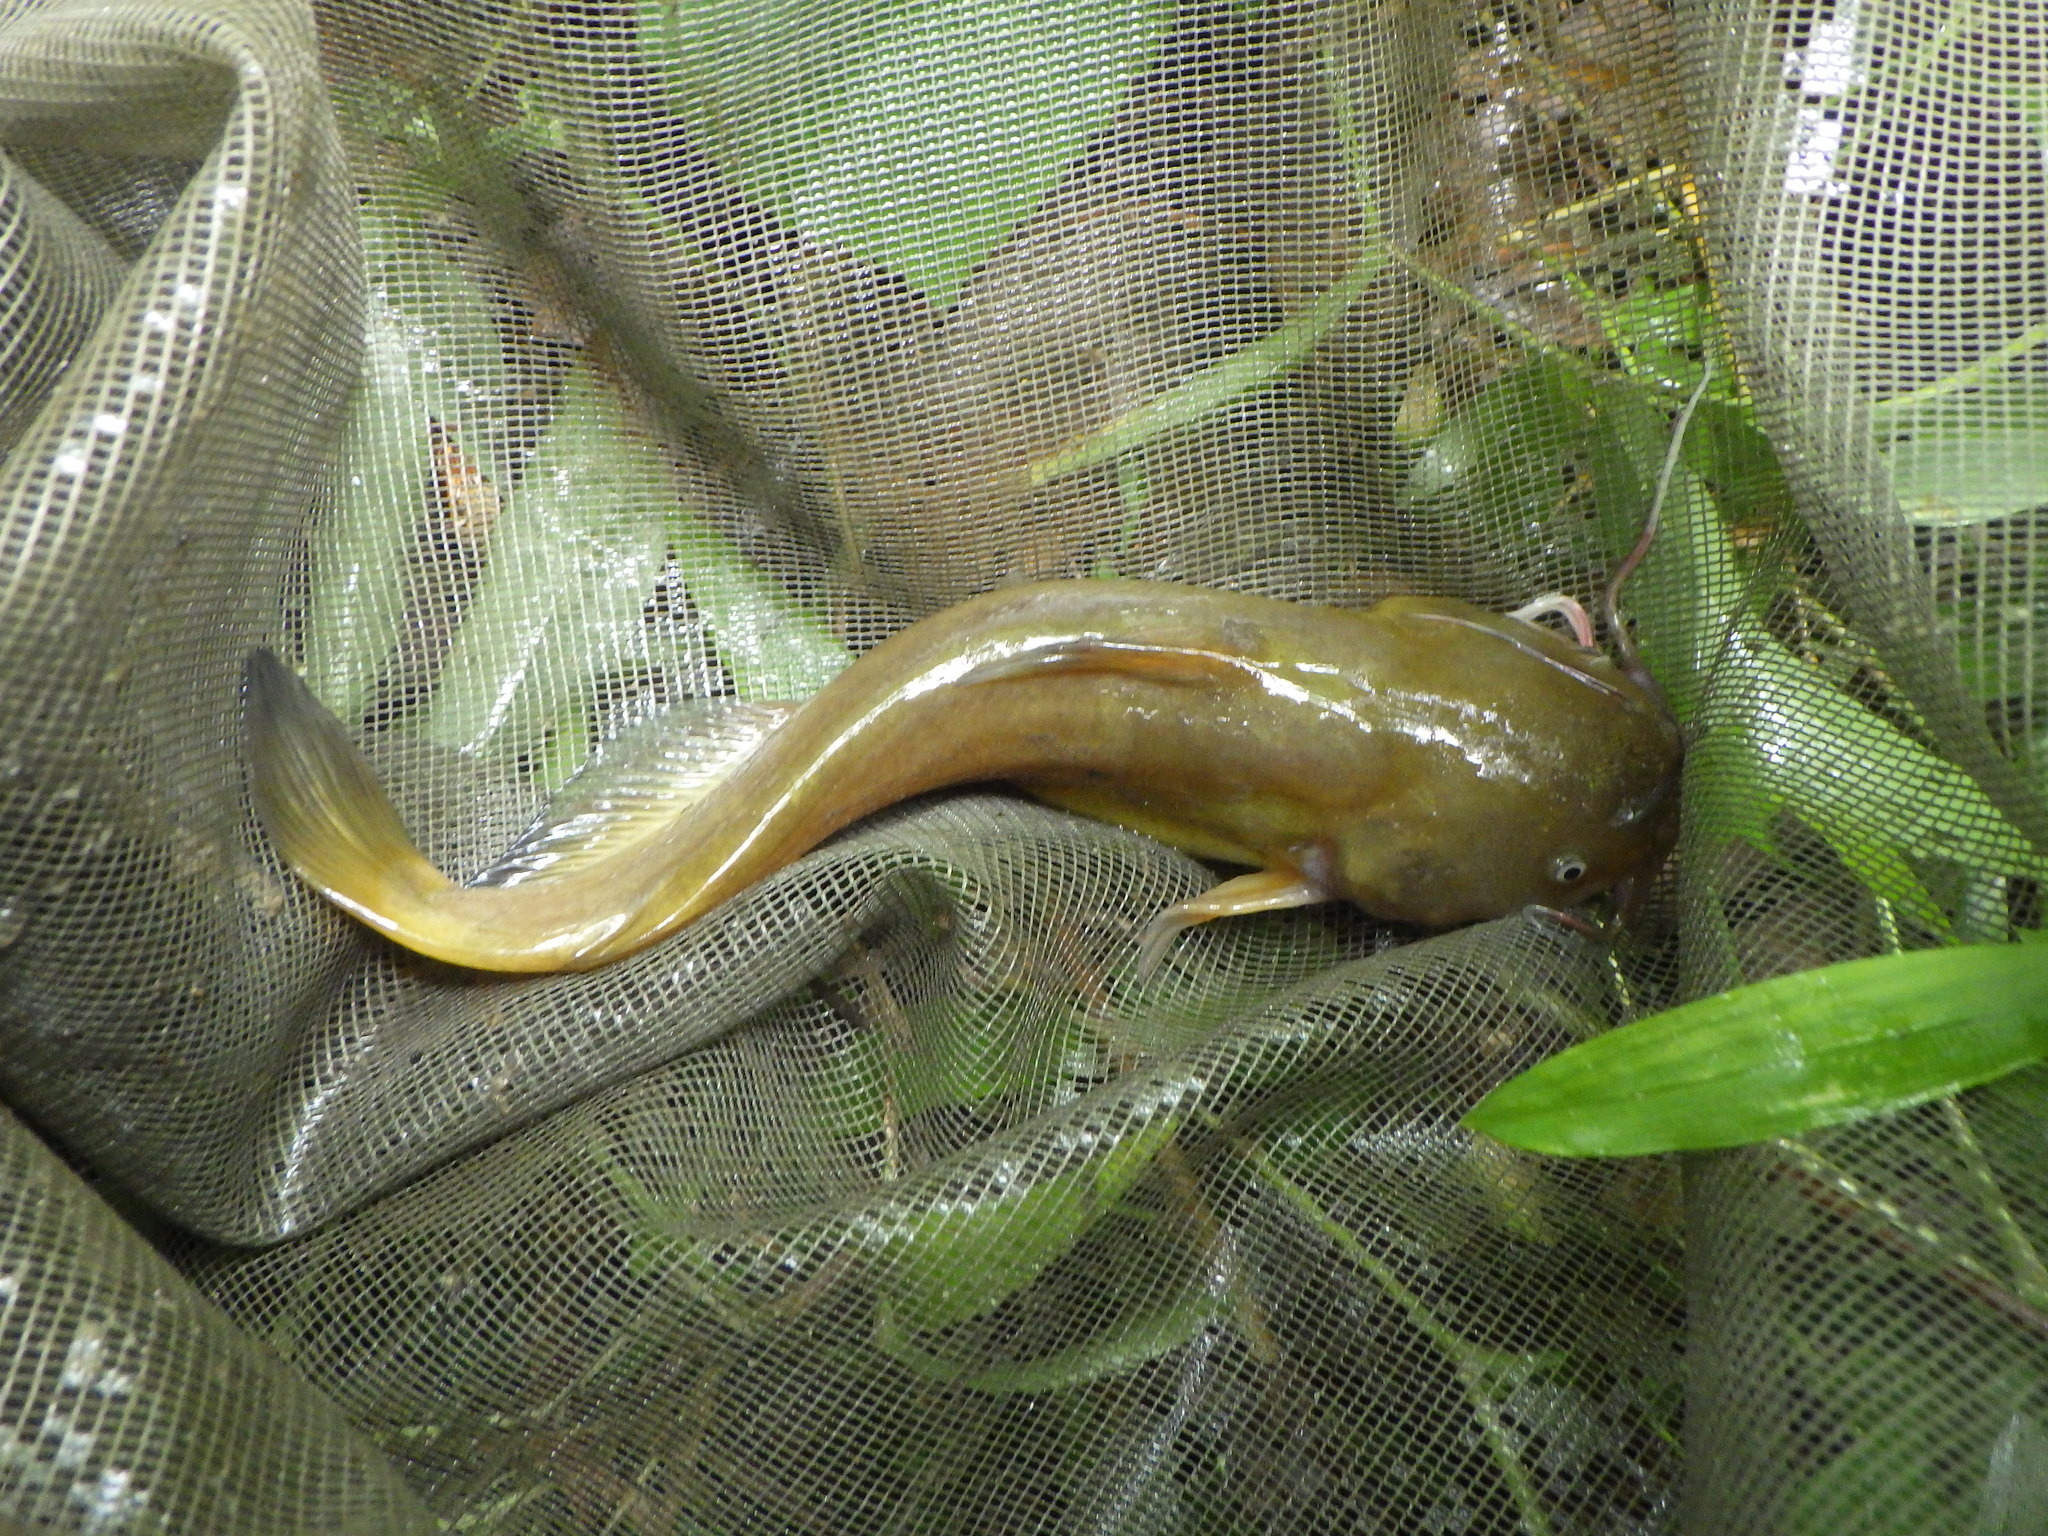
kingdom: Animalia
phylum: Chordata
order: Siluriformes
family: Ictaluridae
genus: Ameiurus
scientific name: Ameiurus natalis
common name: Yellow bullhead
